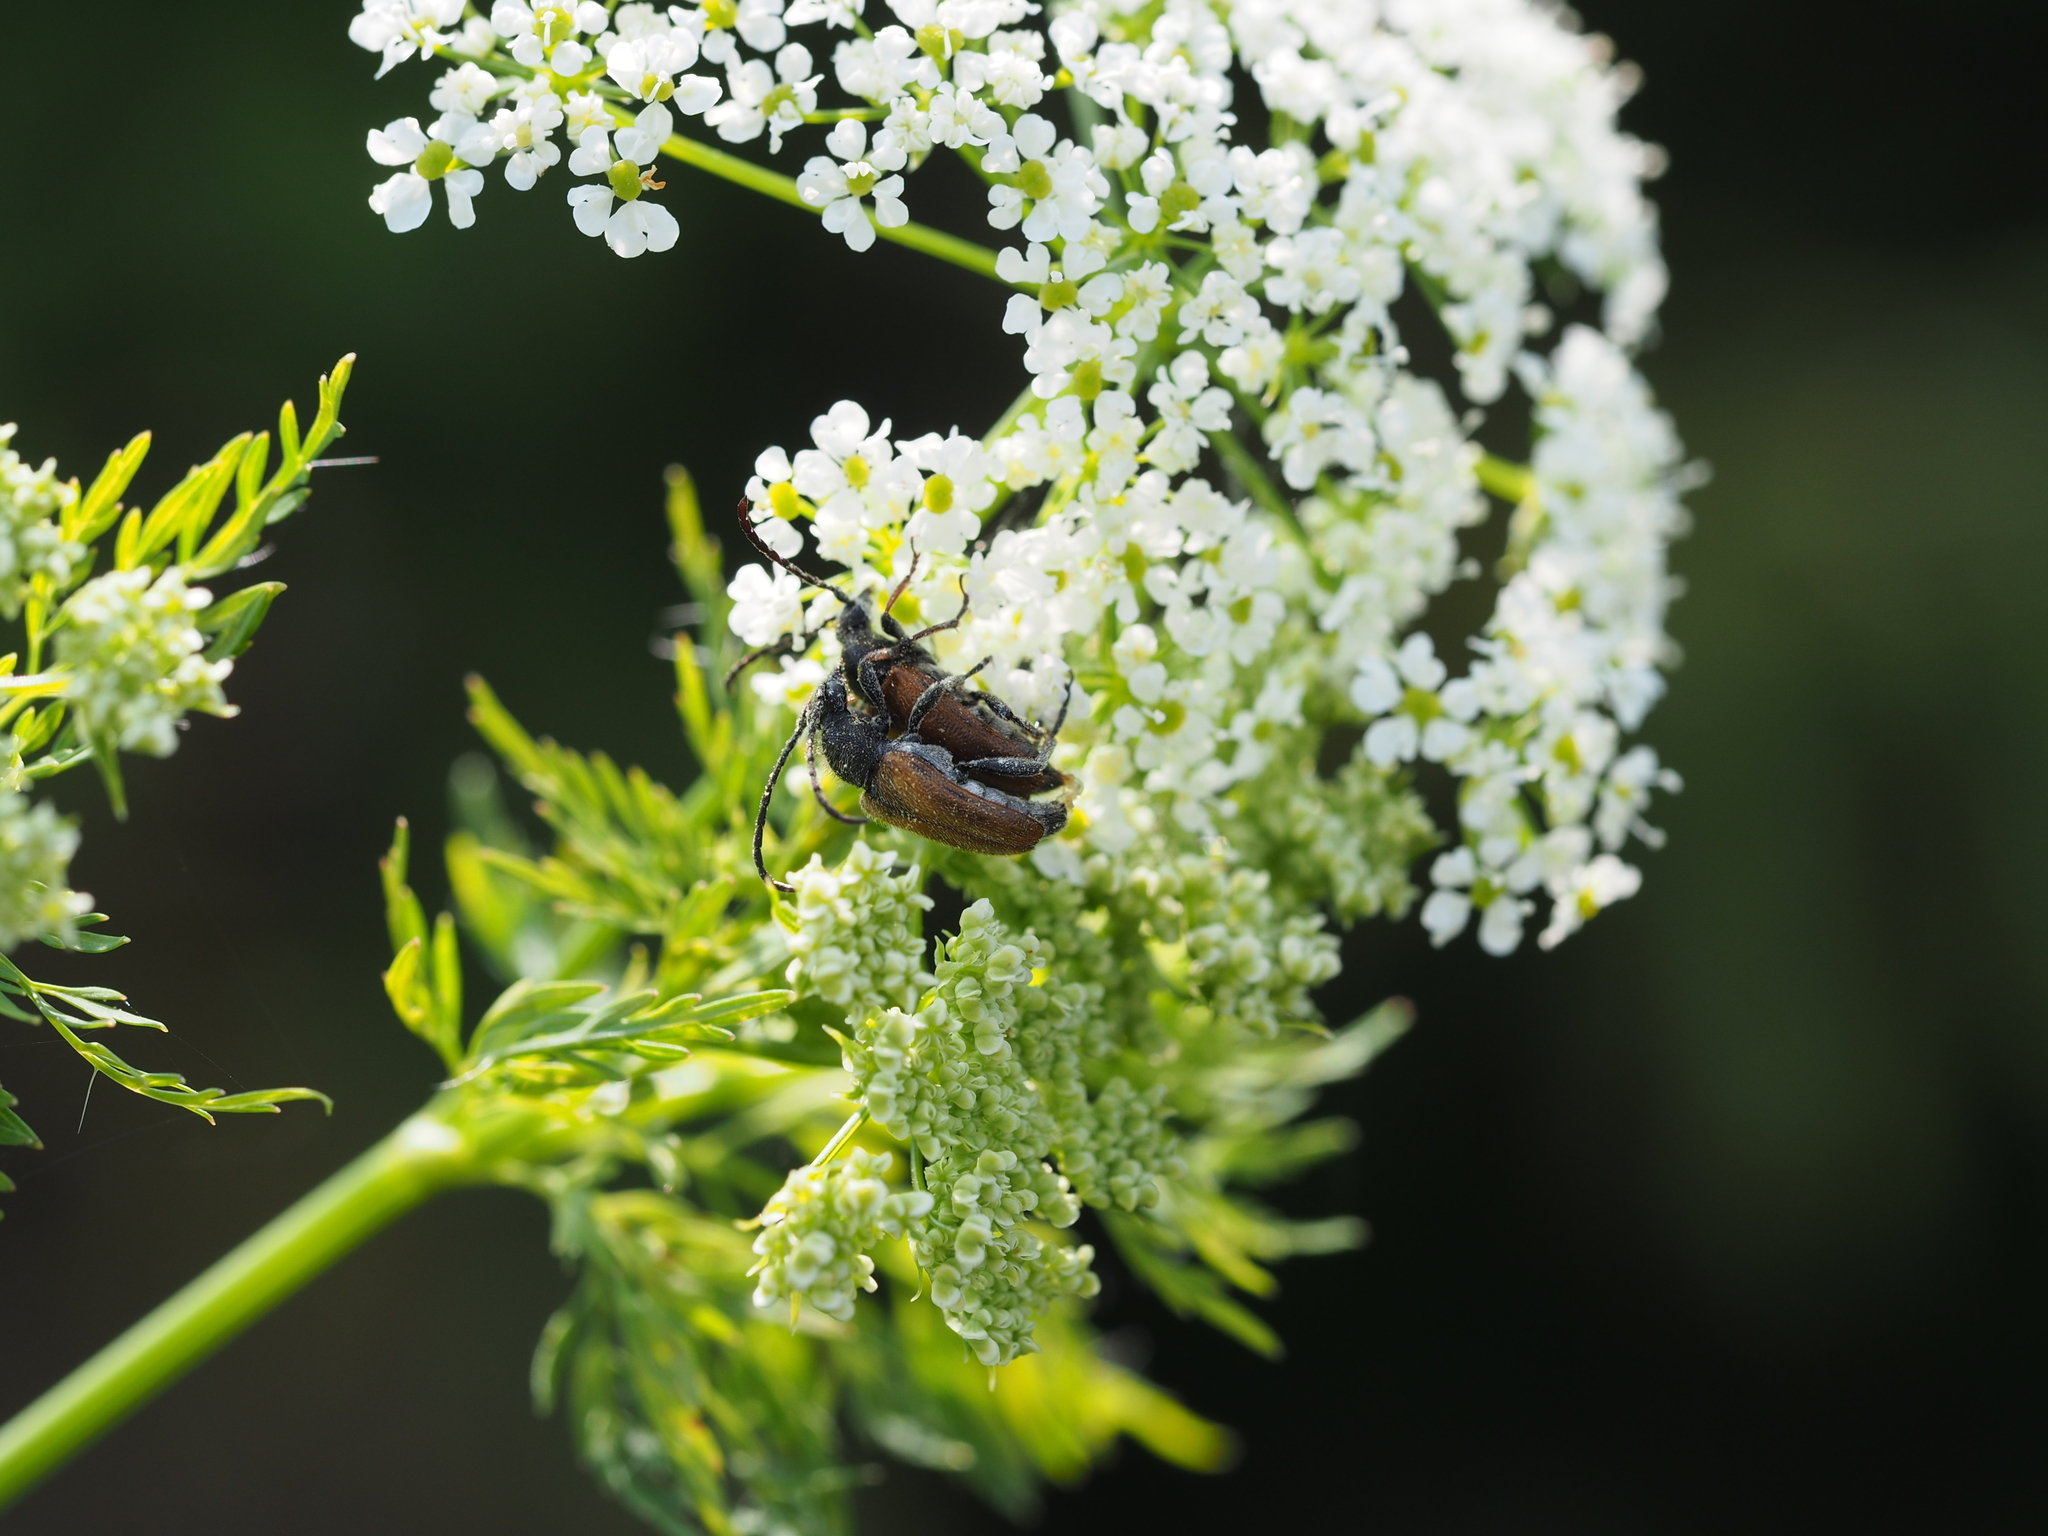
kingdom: Animalia
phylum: Arthropoda
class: Insecta
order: Coleoptera
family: Cerambycidae
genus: Pseudovadonia
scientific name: Pseudovadonia livida
